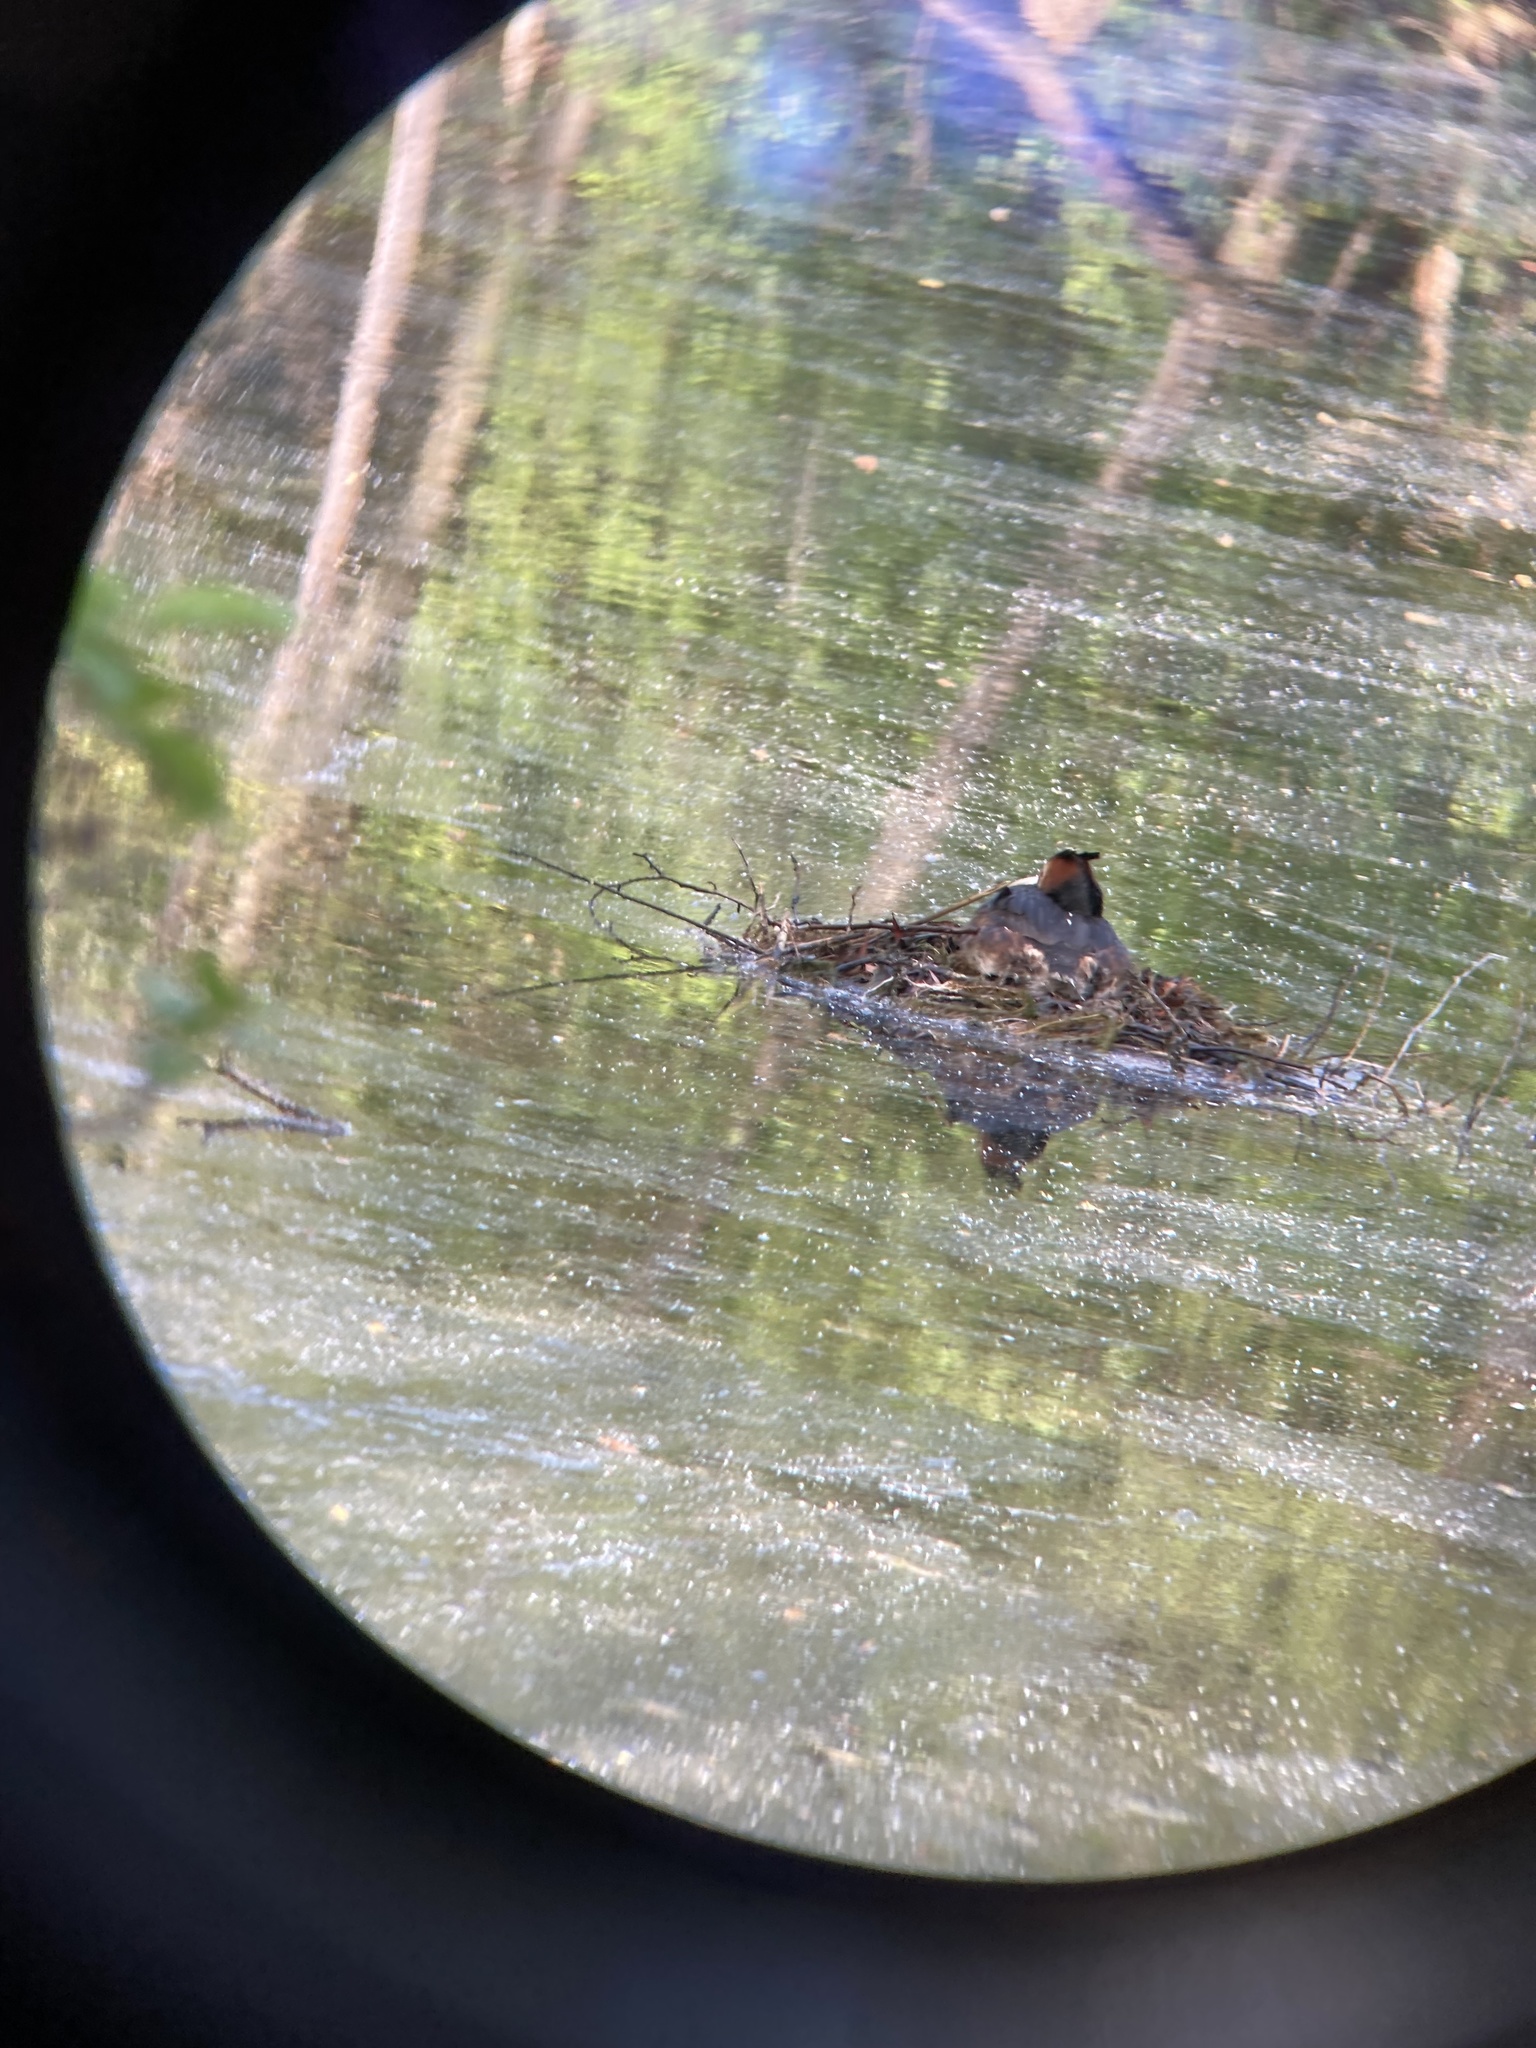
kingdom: Animalia
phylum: Chordata
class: Aves
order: Podicipediformes
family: Podicipedidae
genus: Podiceps
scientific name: Podiceps cristatus
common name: Great crested grebe
